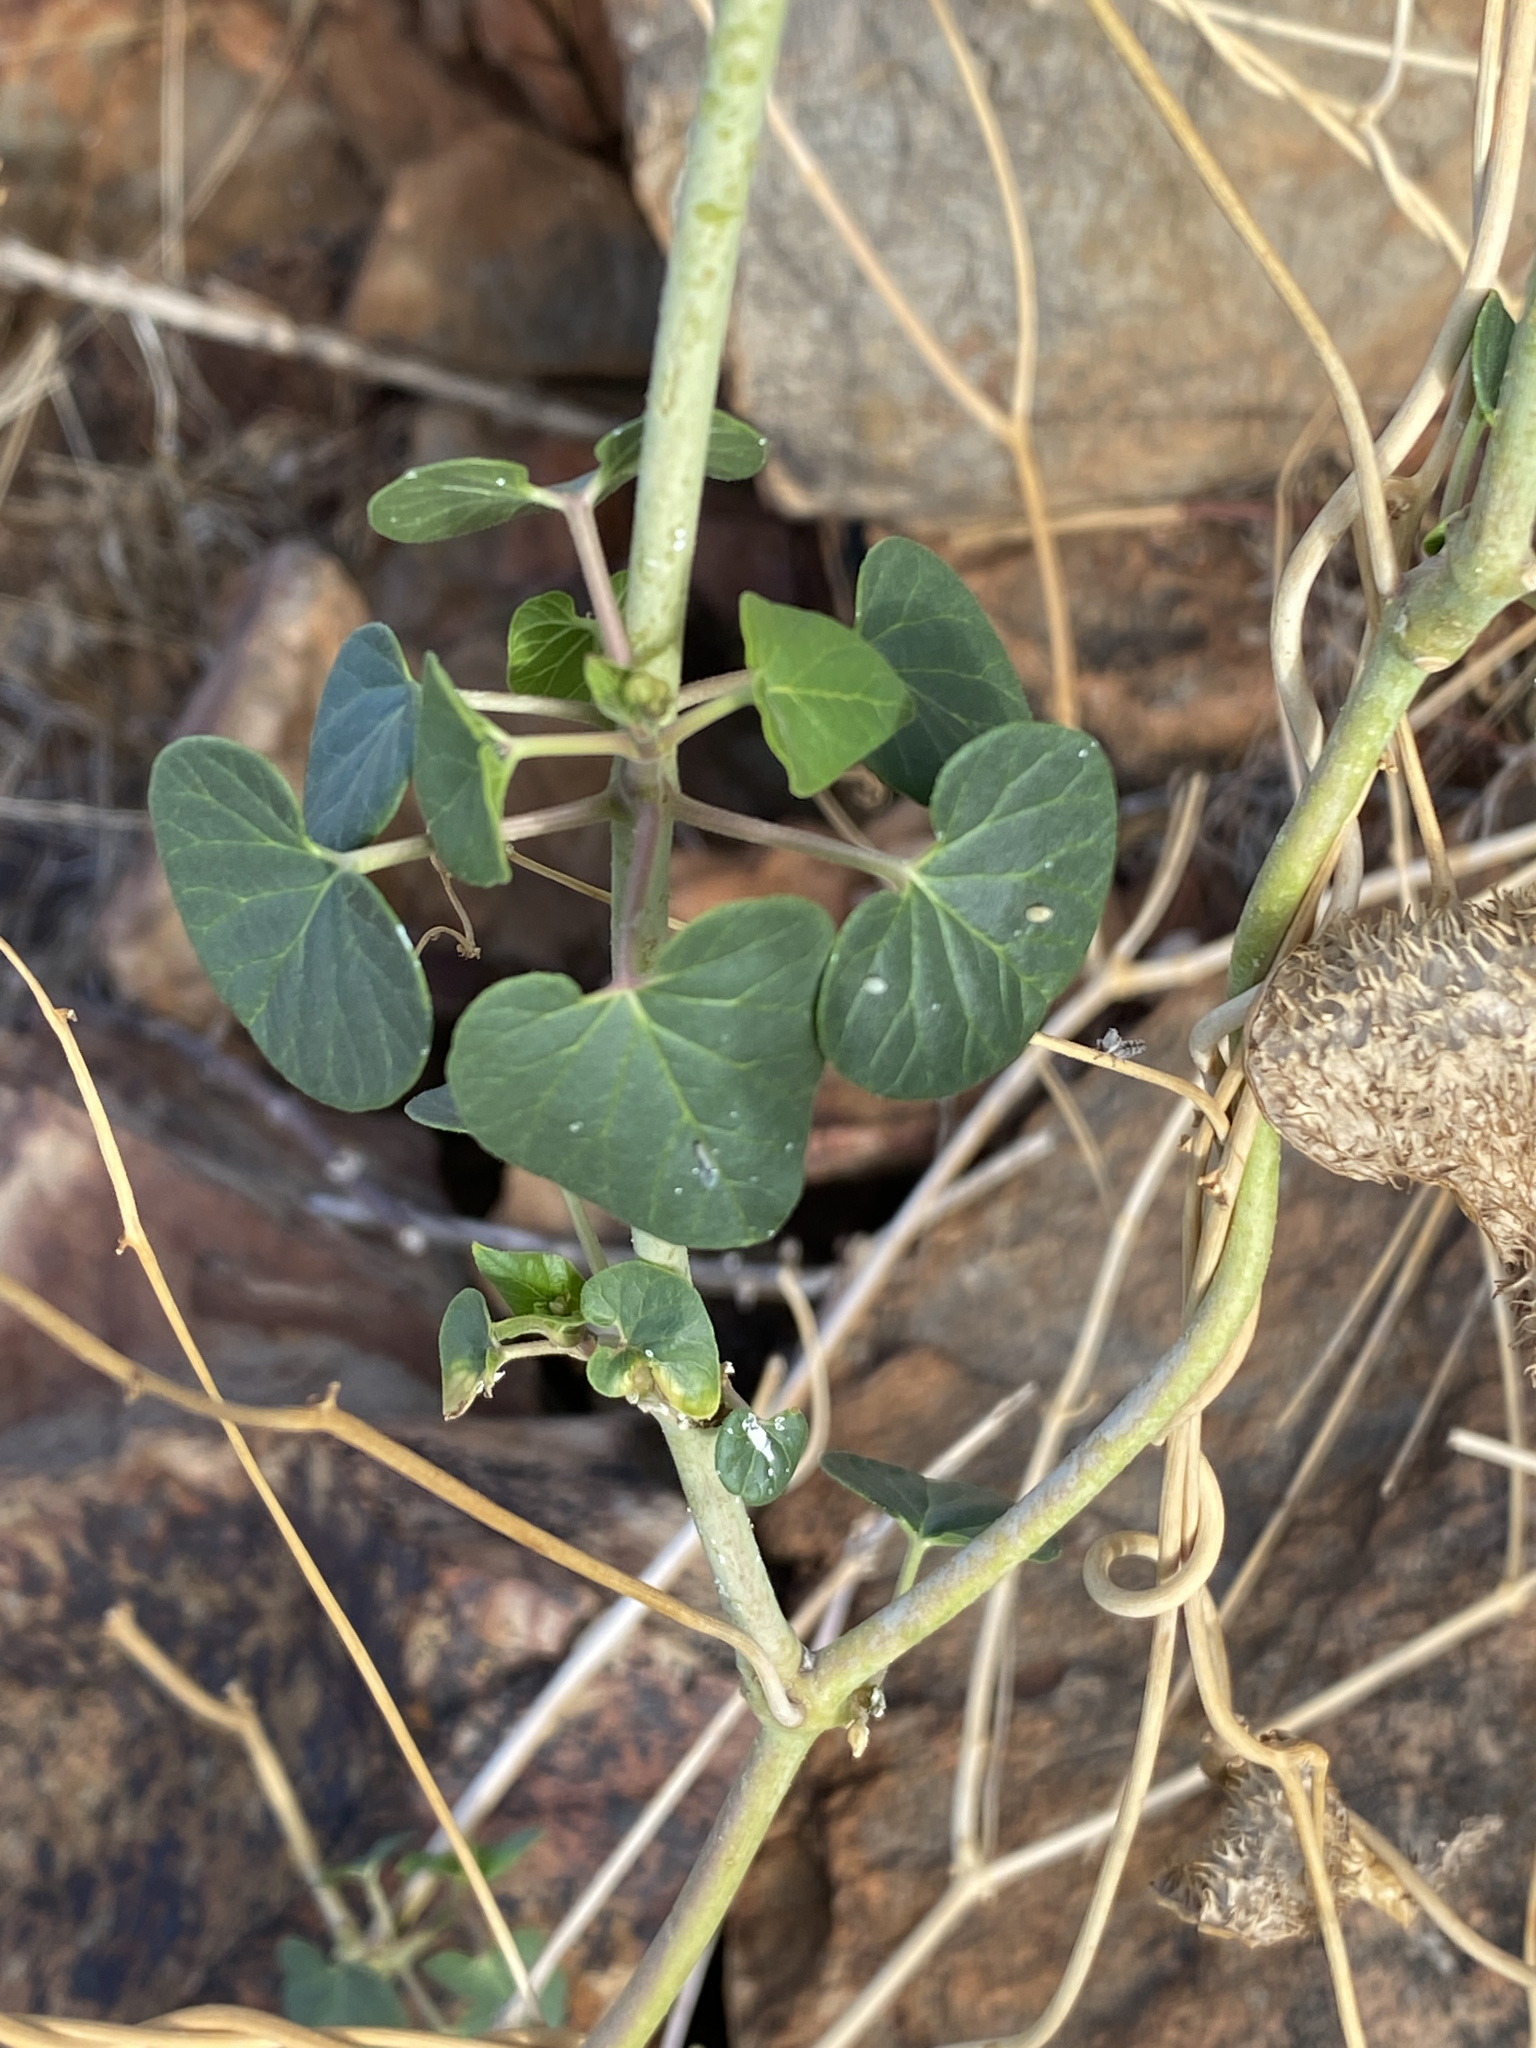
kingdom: Plantae
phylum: Tracheophyta
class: Magnoliopsida
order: Gentianales
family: Apocynaceae
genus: Pergularia
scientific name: Pergularia daemia
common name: Trellis-vine
